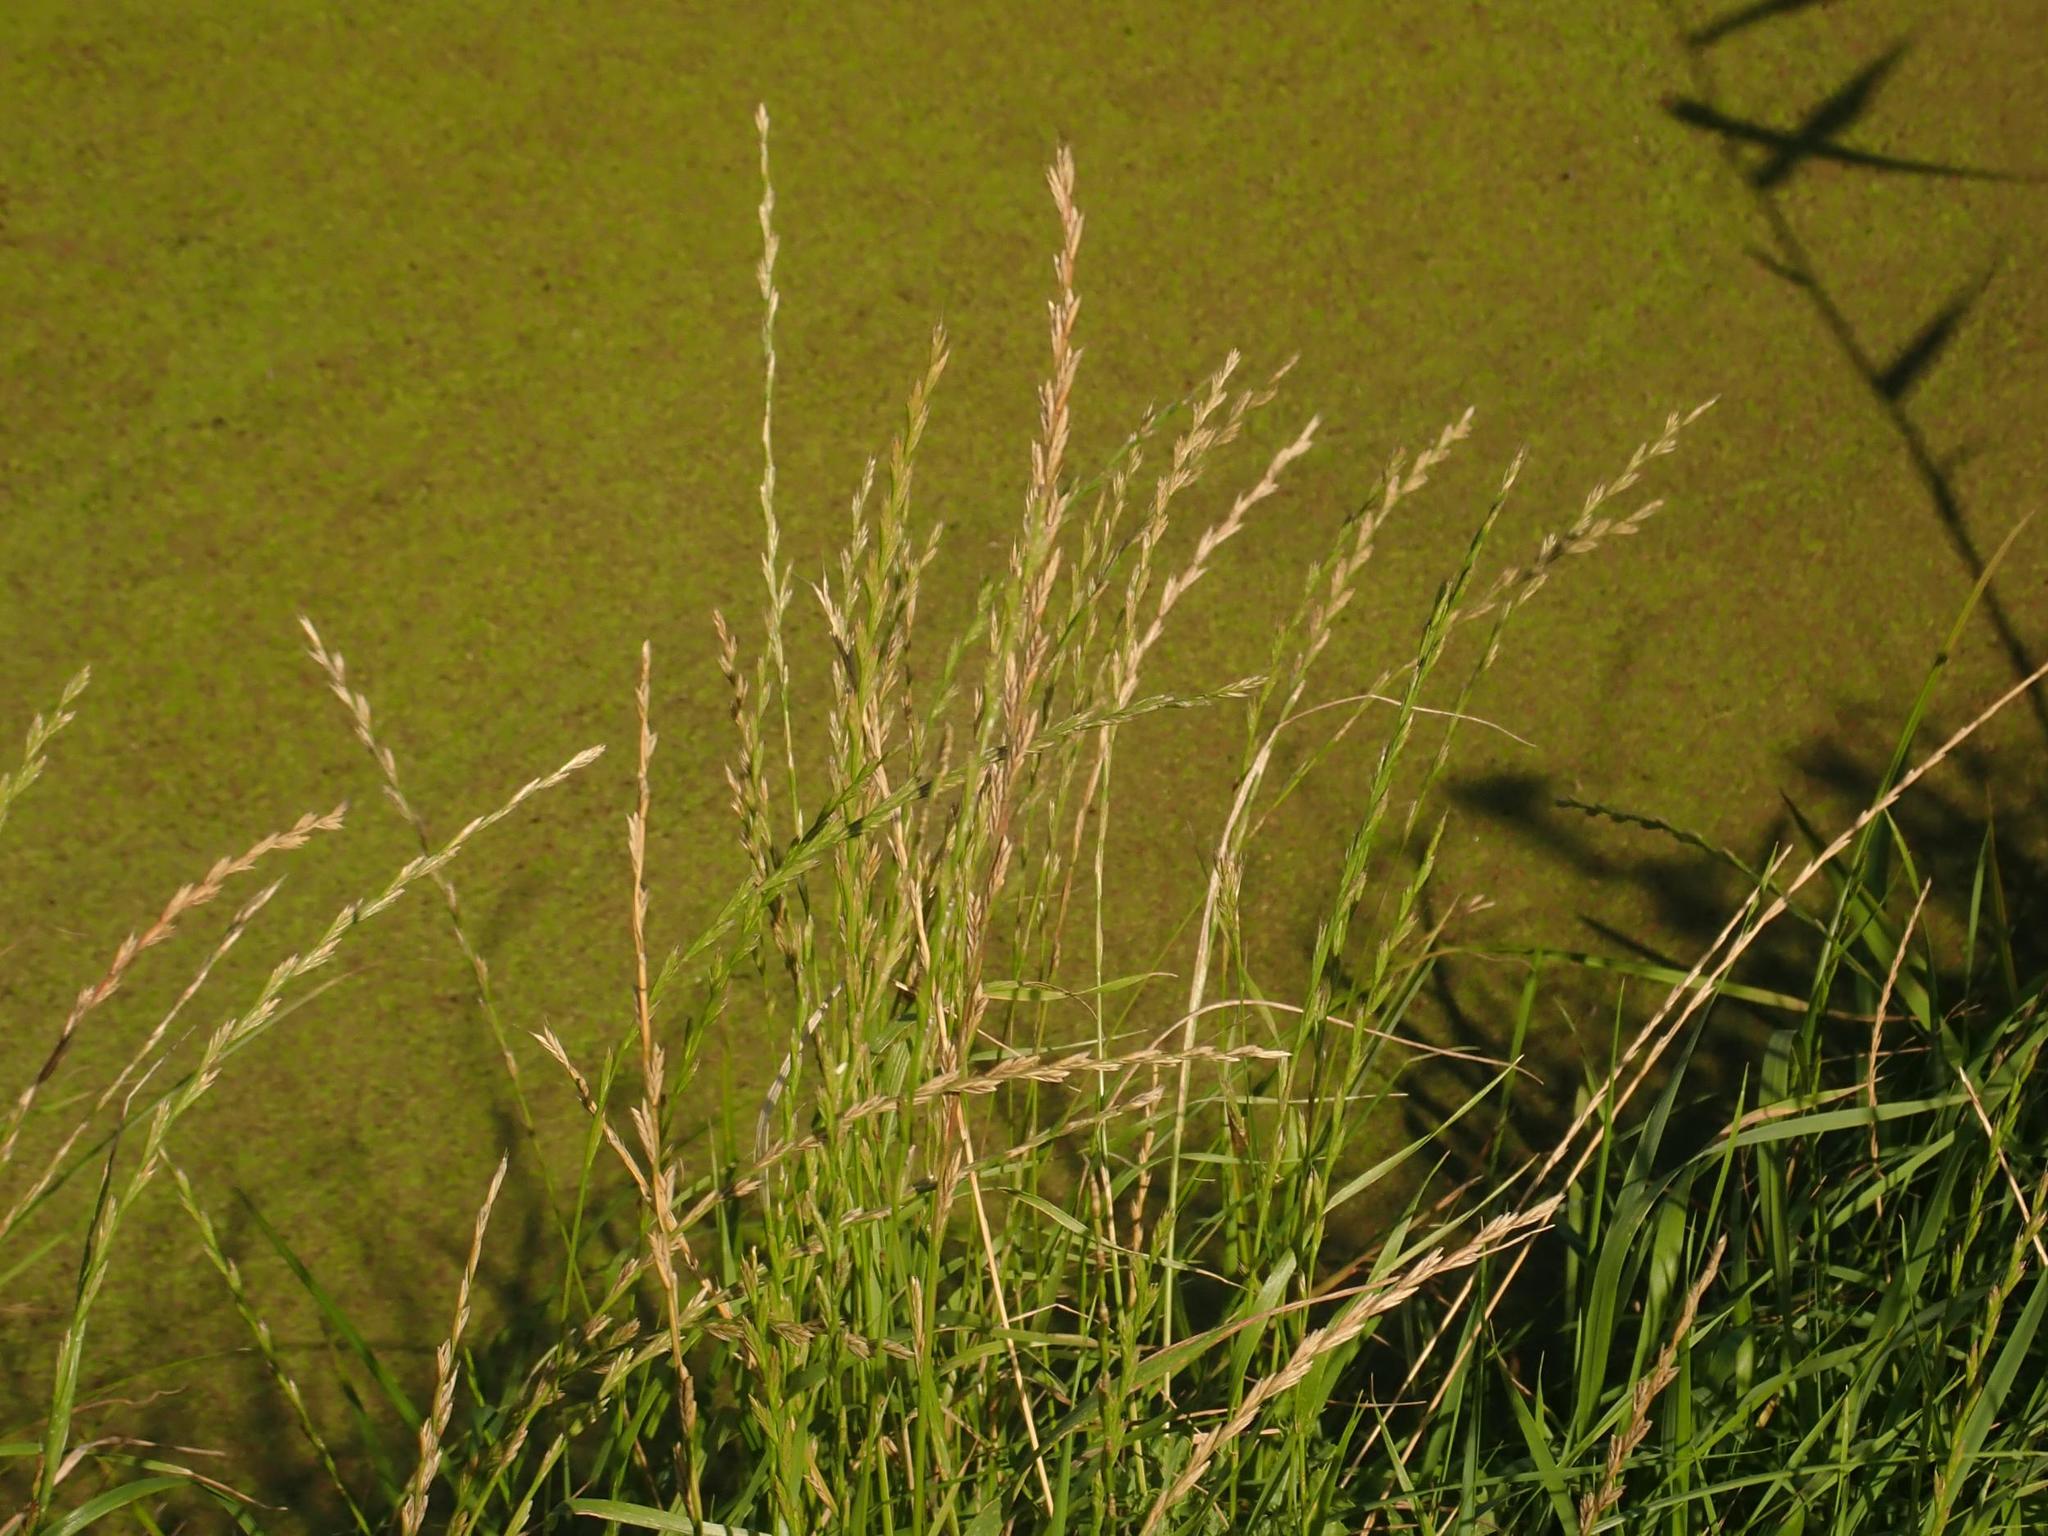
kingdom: Plantae
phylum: Tracheophyta
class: Liliopsida
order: Poales
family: Poaceae
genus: Lolium
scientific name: Lolium perenne
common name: Perennial ryegrass
